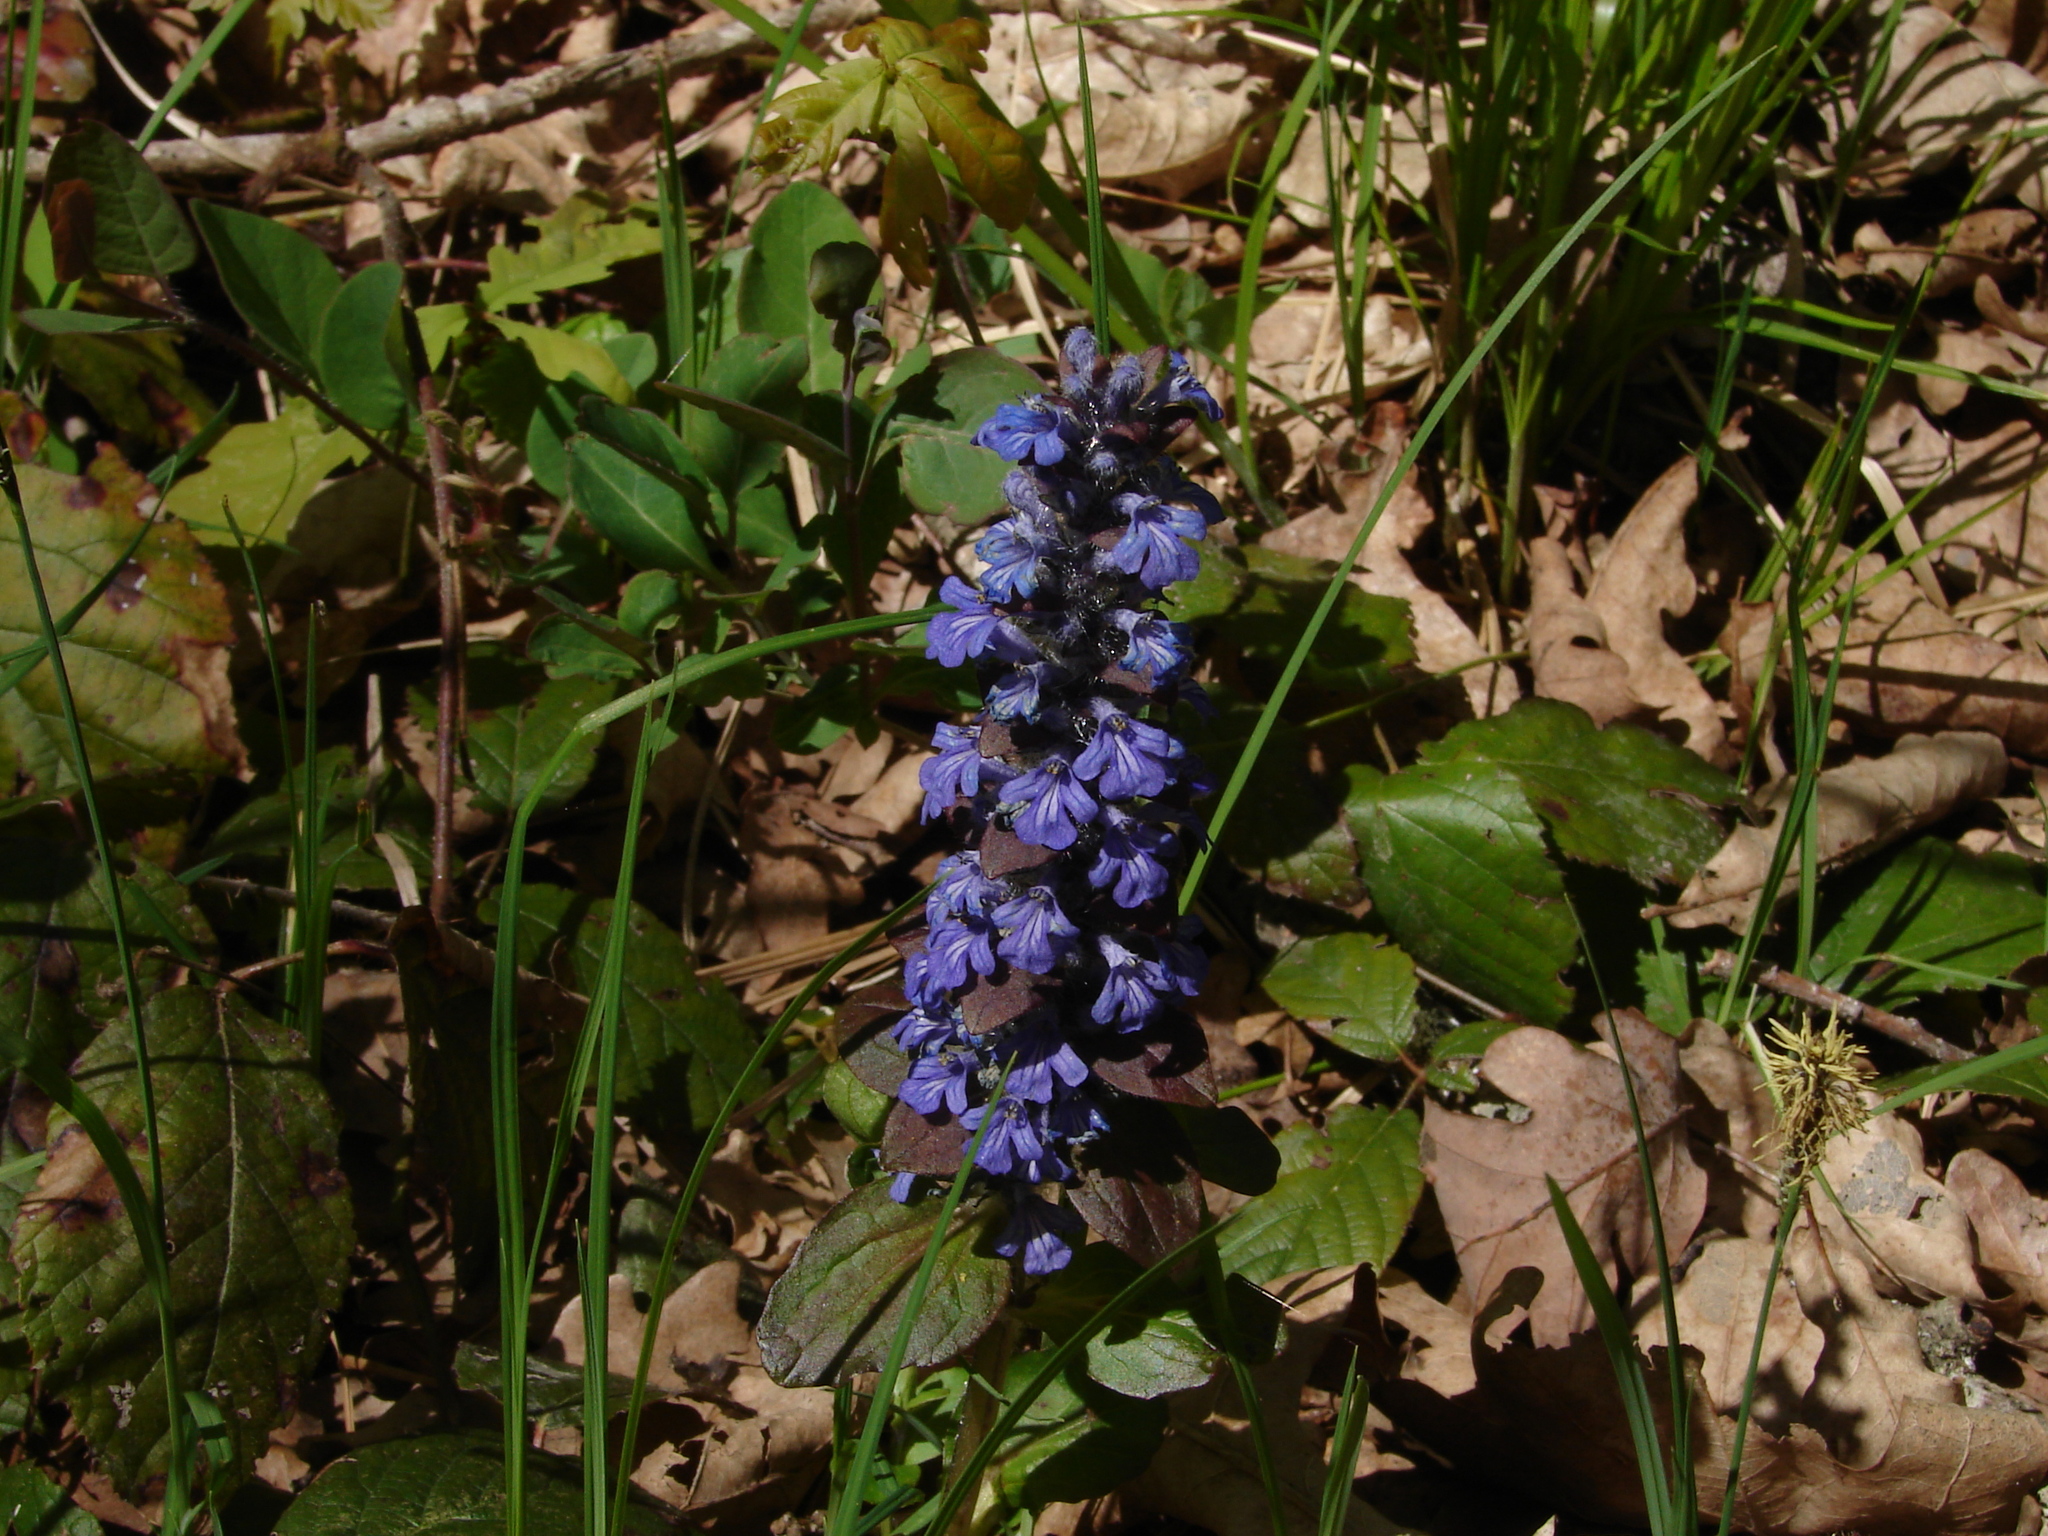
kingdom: Plantae
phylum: Tracheophyta
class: Magnoliopsida
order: Lamiales
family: Lamiaceae
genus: Ajuga
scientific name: Ajuga reptans
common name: Bugle
